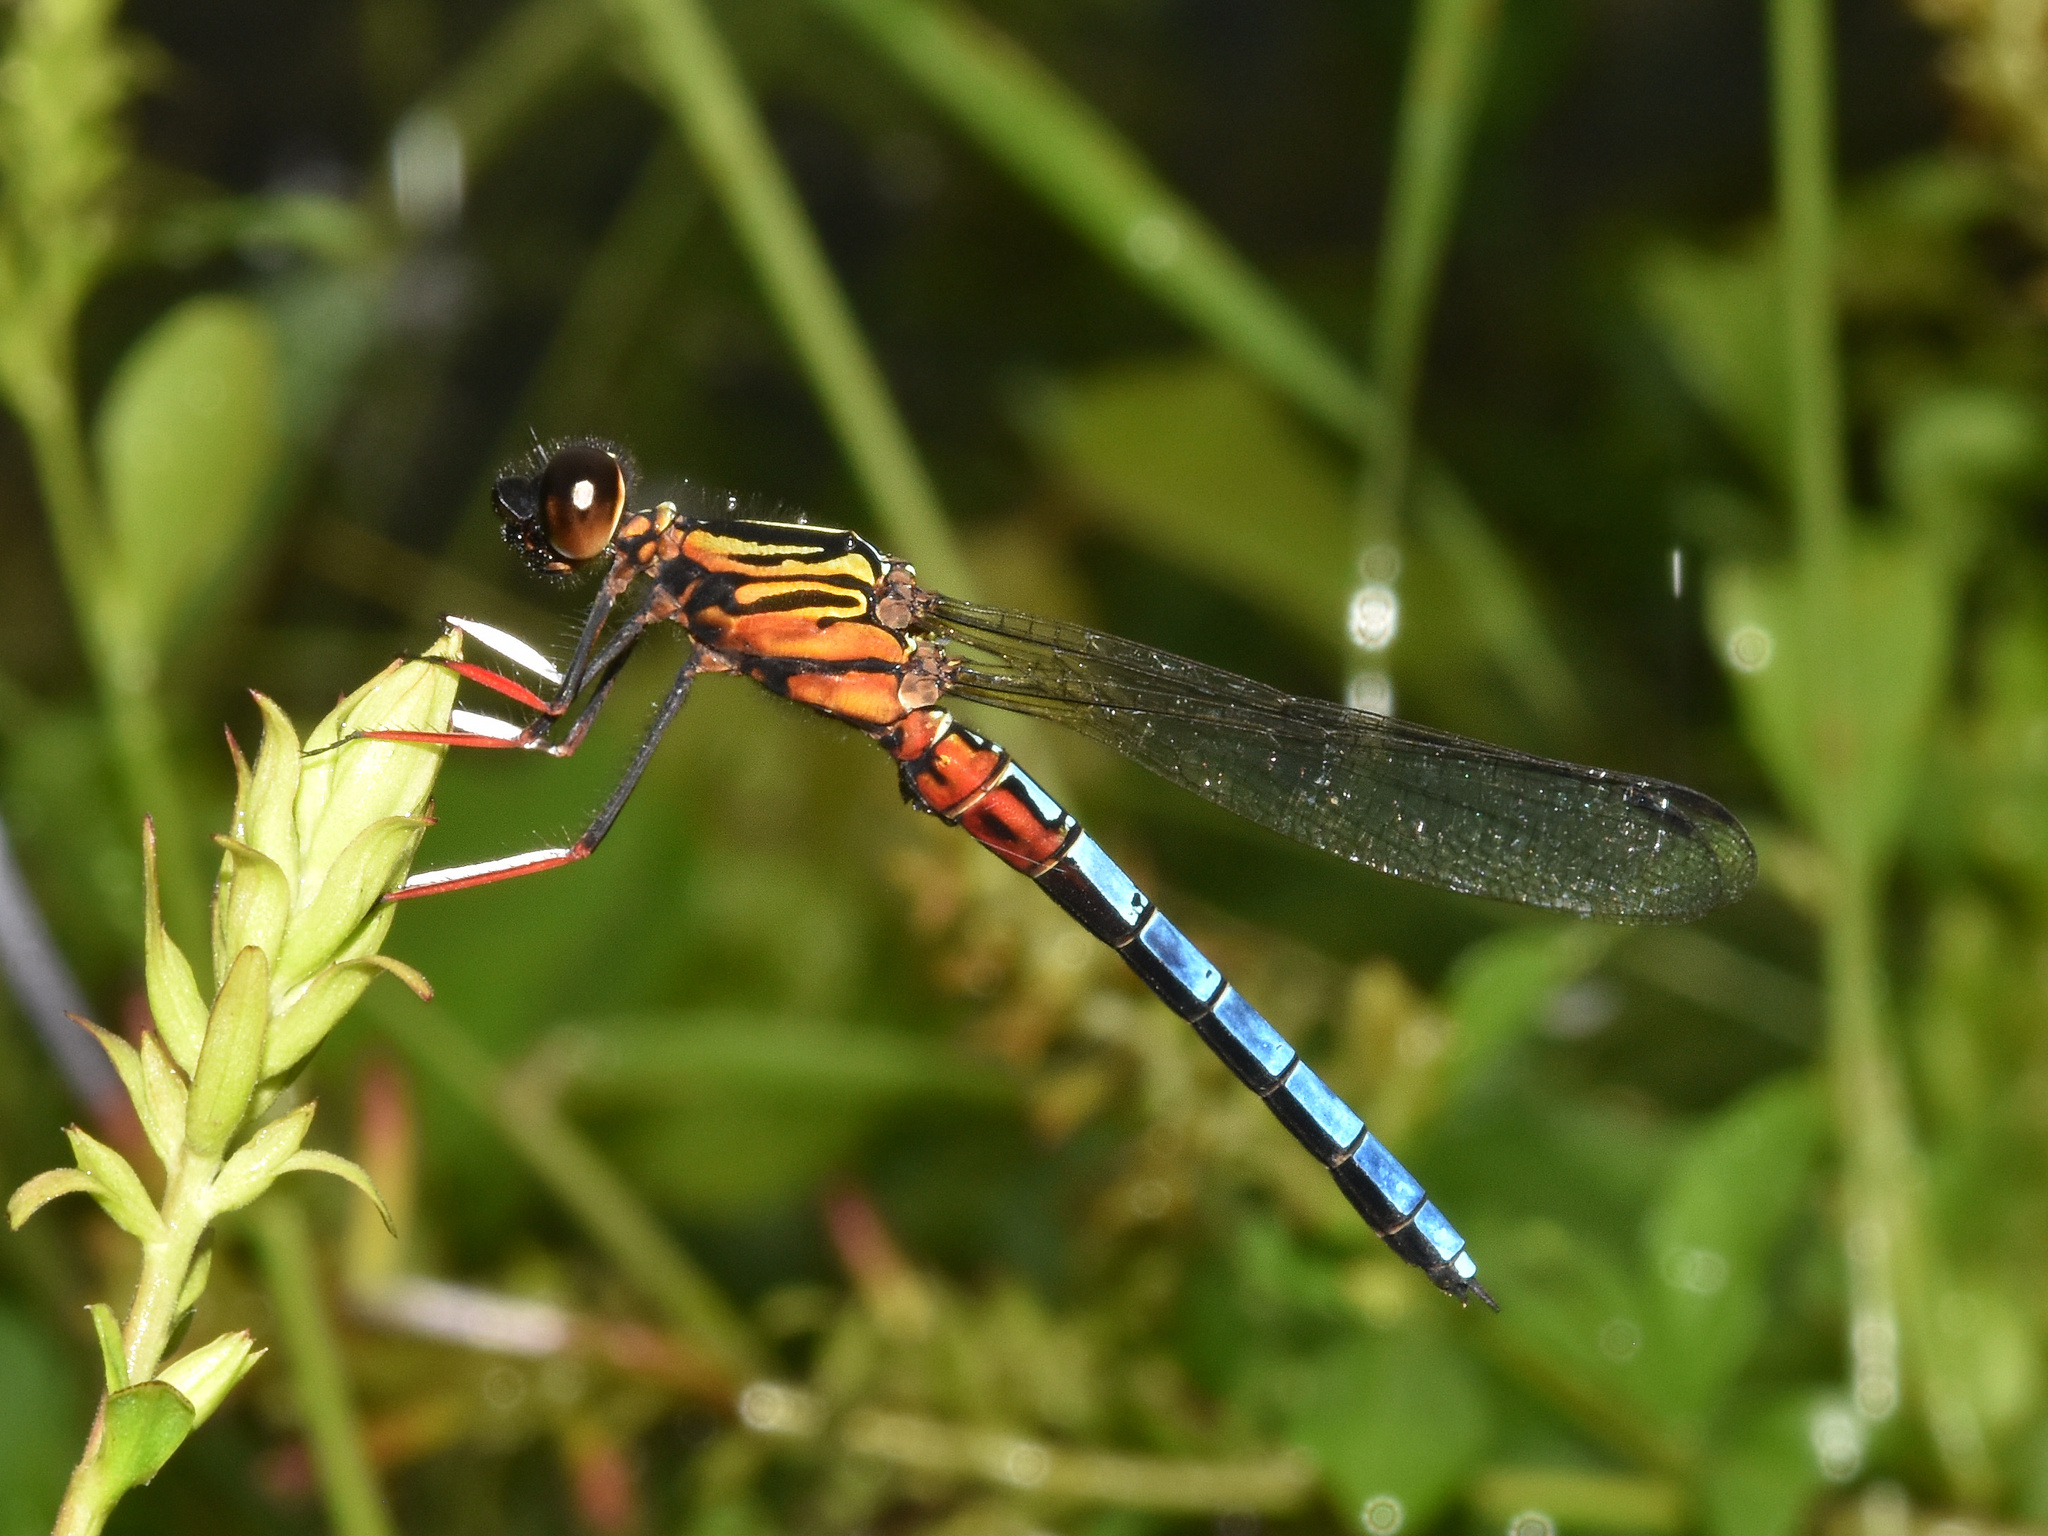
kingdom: Animalia
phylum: Arthropoda
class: Insecta
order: Odonata
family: Chlorocyphidae
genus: Platycypha
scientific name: Platycypha caligata
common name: Dancing jewel
